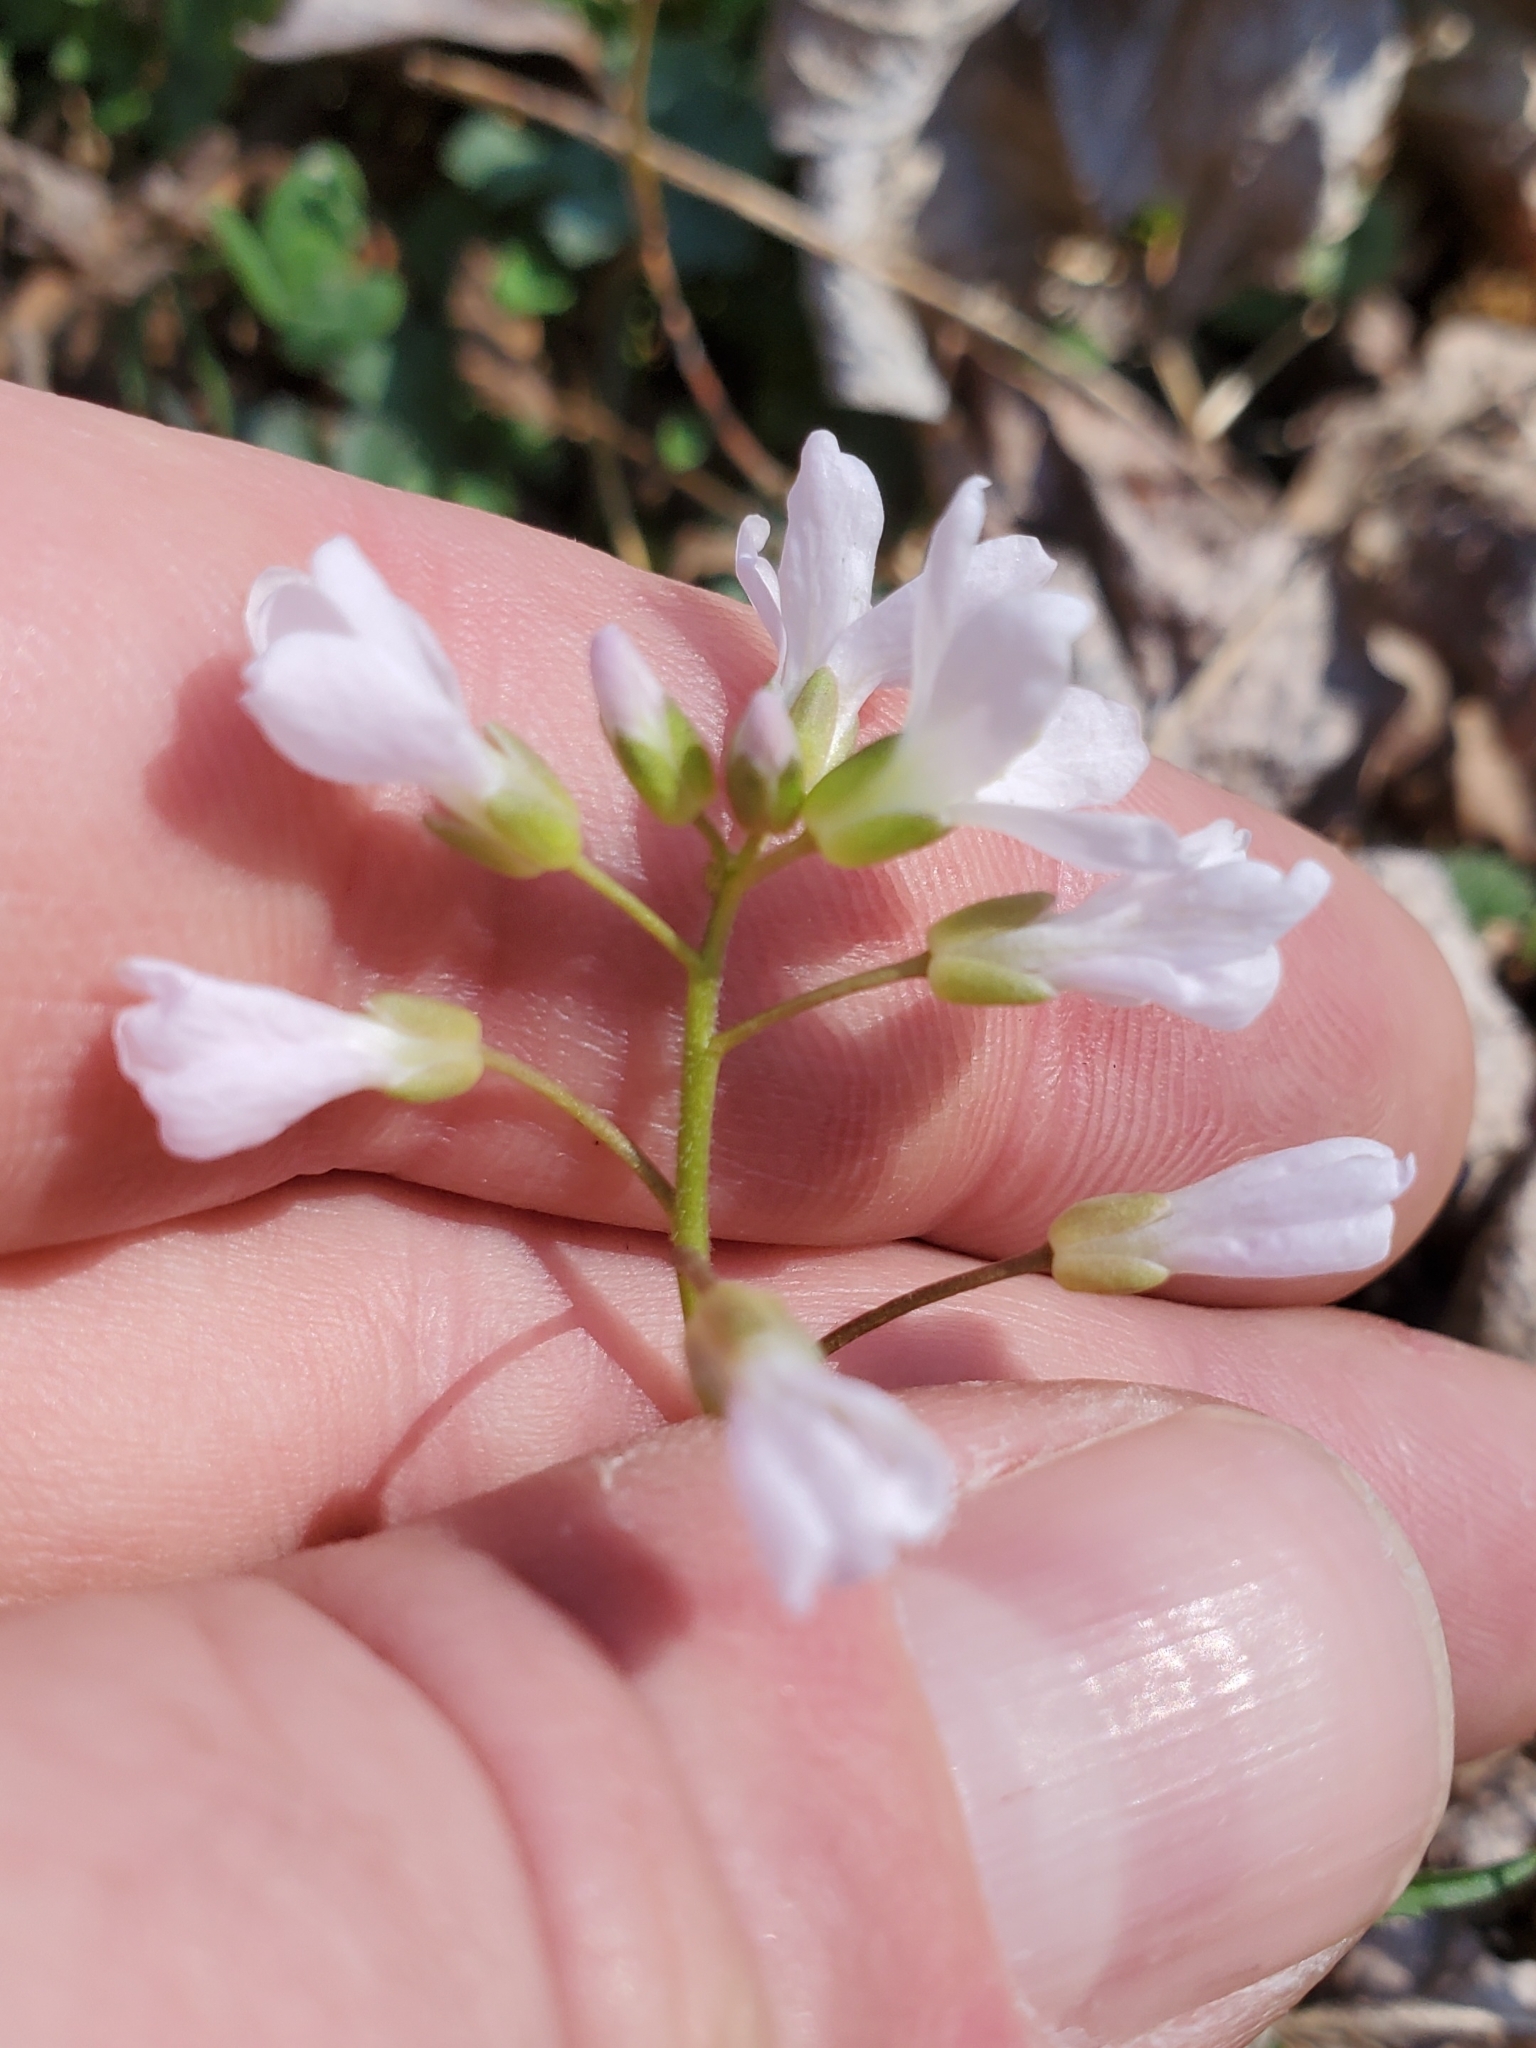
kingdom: Plantae
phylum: Tracheophyta
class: Magnoliopsida
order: Brassicales
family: Brassicaceae
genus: Cardamine
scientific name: Cardamine concatenata
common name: Cut-leaf toothcup
